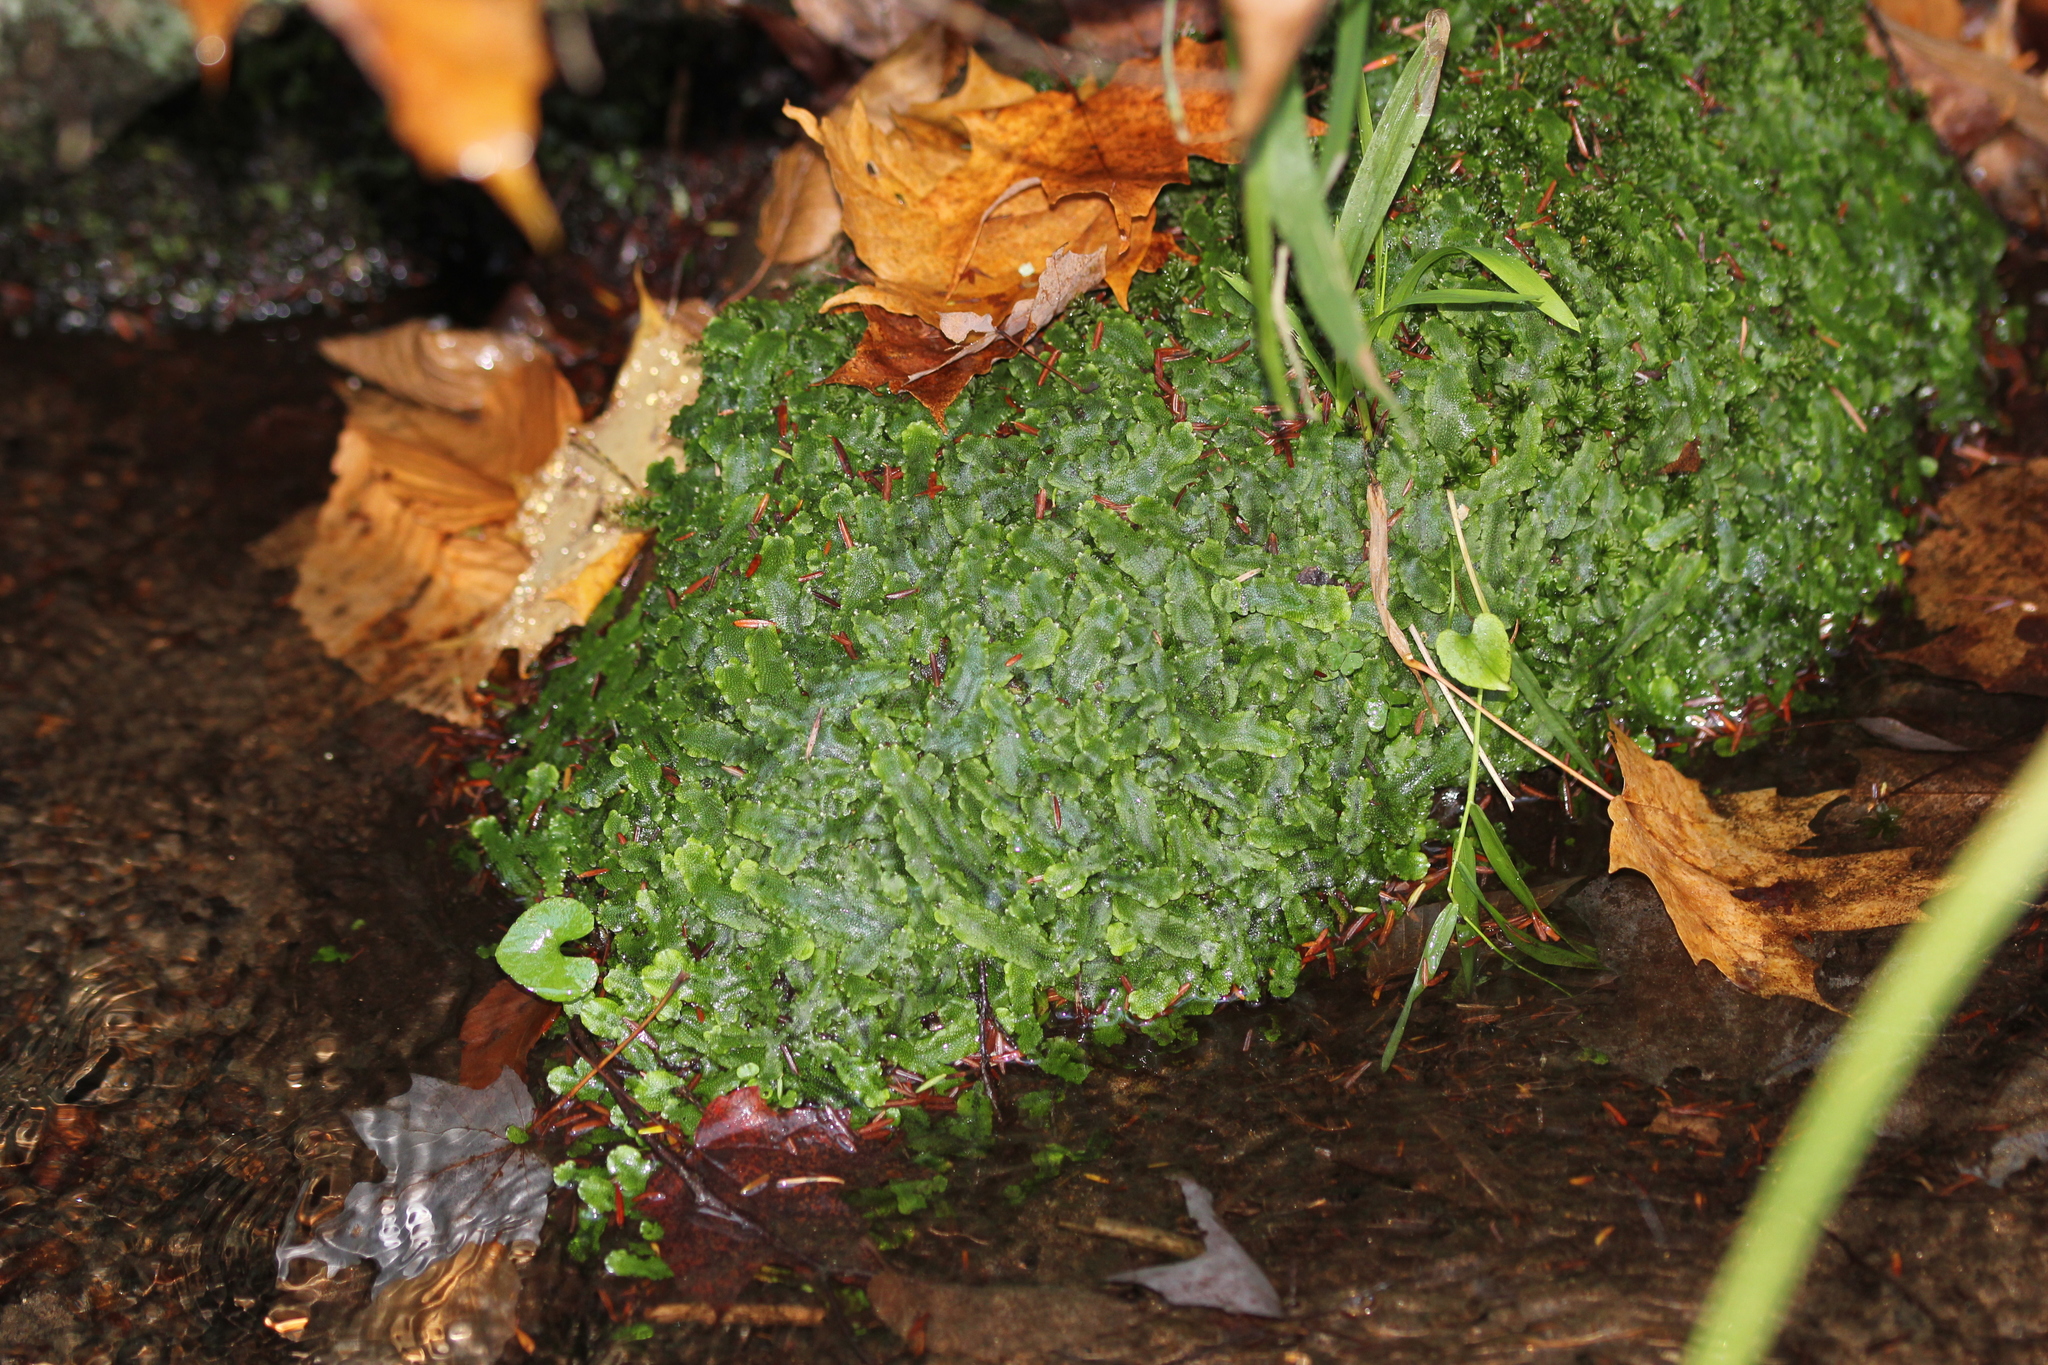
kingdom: Plantae
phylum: Marchantiophyta
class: Marchantiopsida
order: Marchantiales
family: Conocephalaceae
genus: Conocephalum
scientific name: Conocephalum salebrosum
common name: Cat-tongue liverwort
